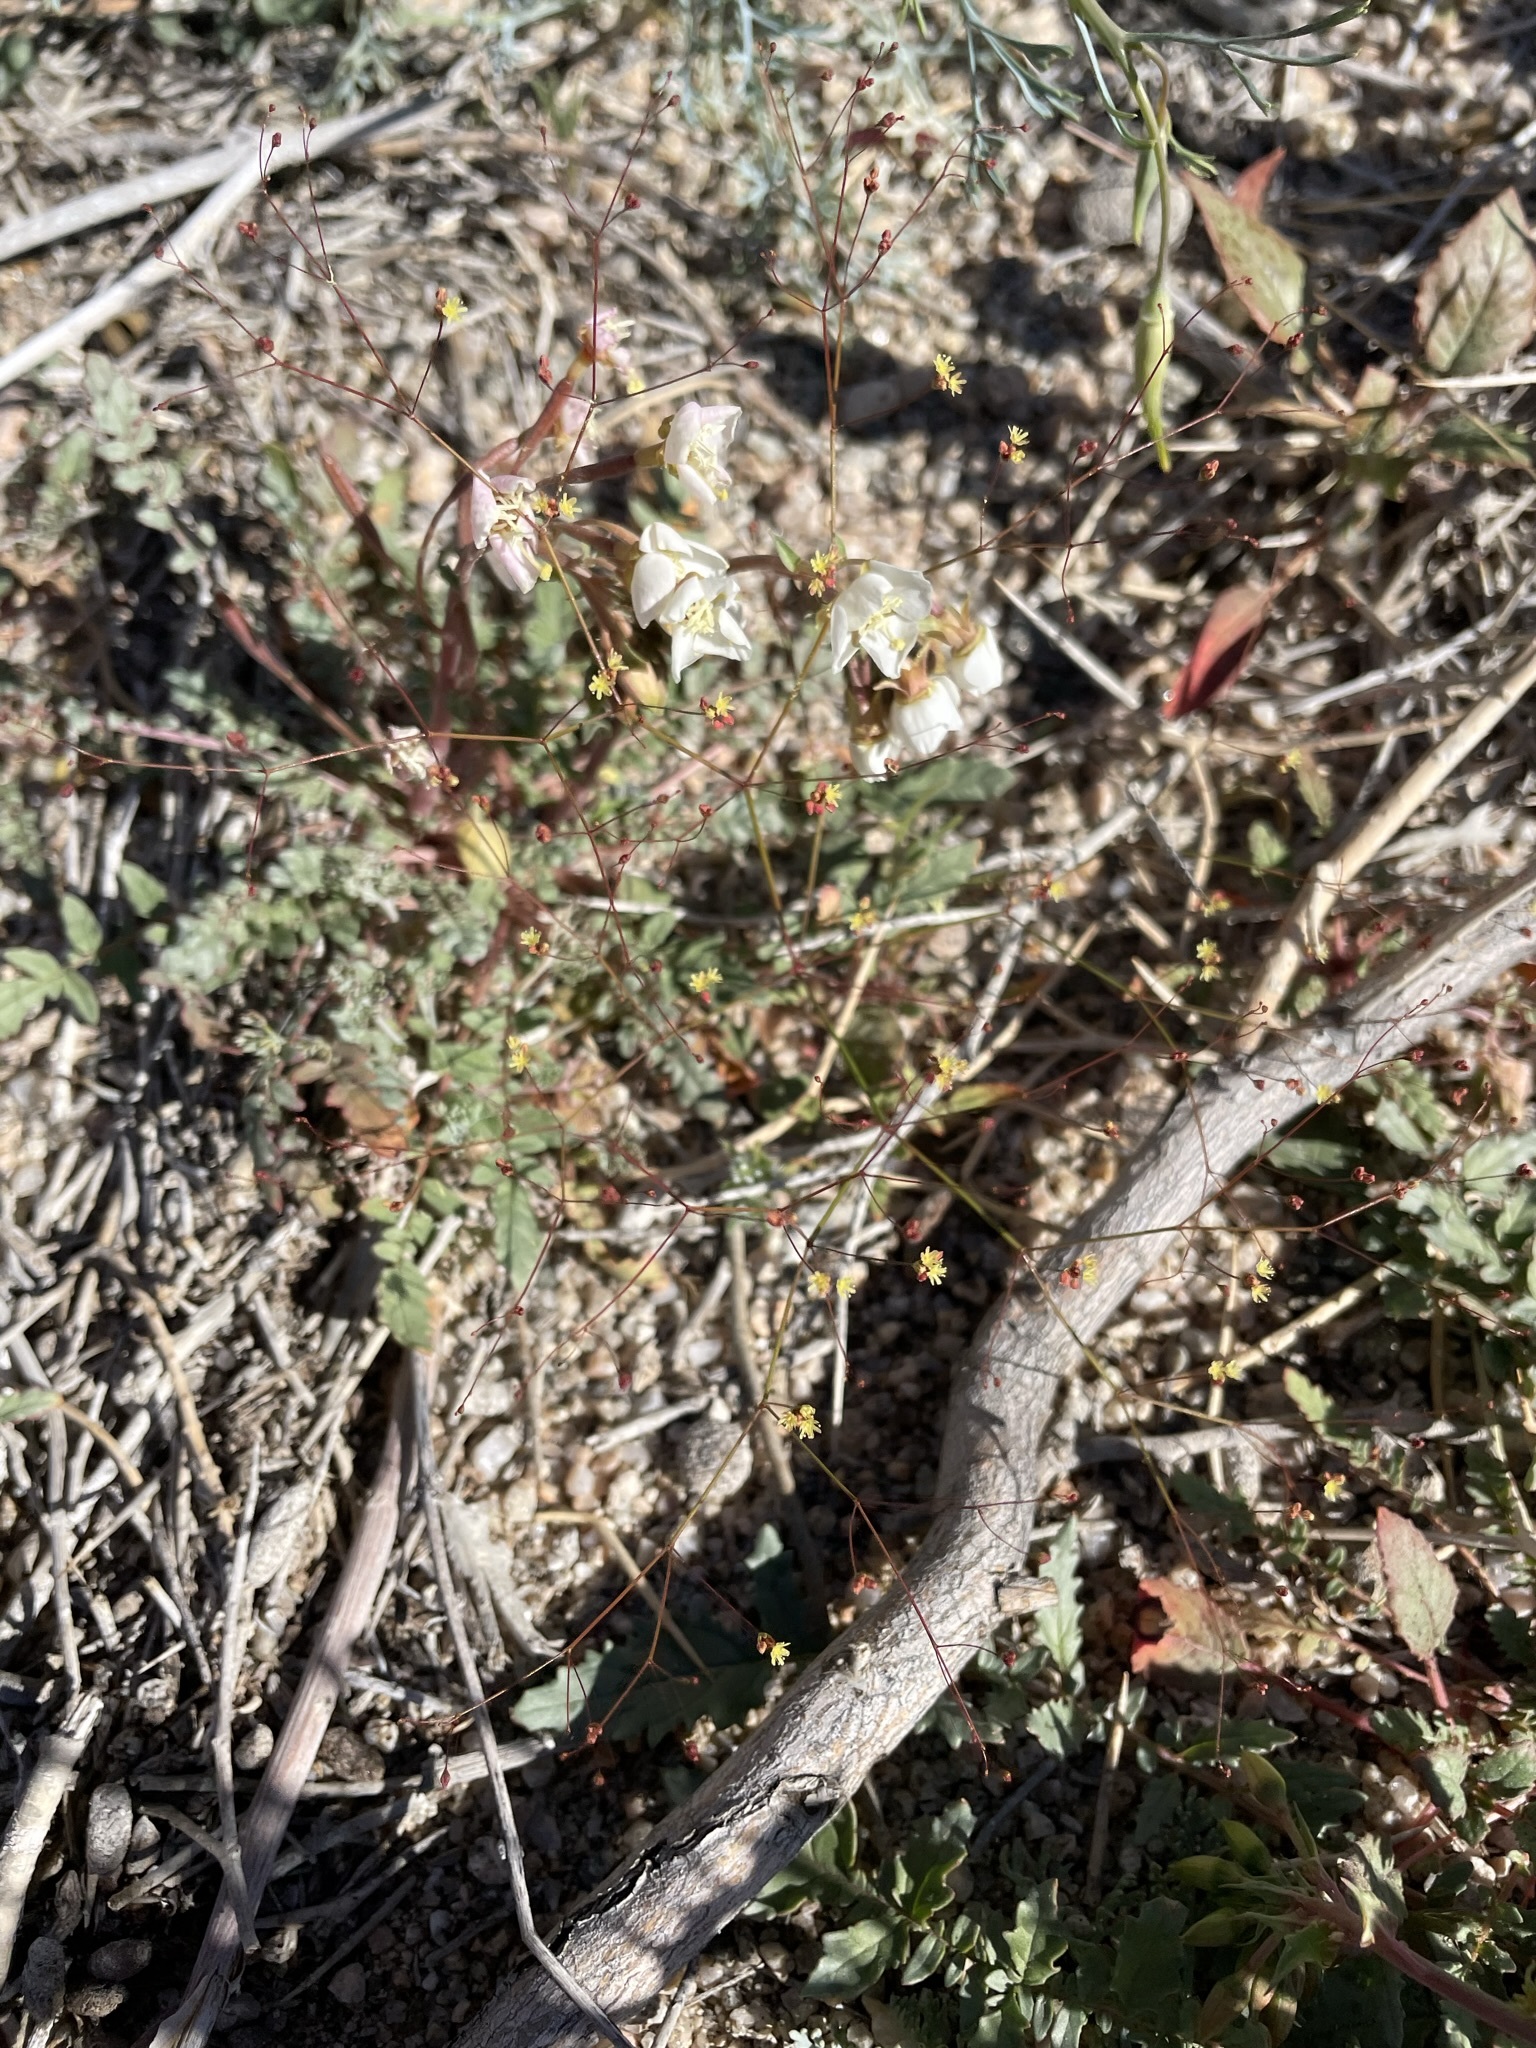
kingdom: Plantae
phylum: Tracheophyta
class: Magnoliopsida
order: Caryophyllales
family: Polygonaceae
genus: Eriogonum
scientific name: Eriogonum thomasii
